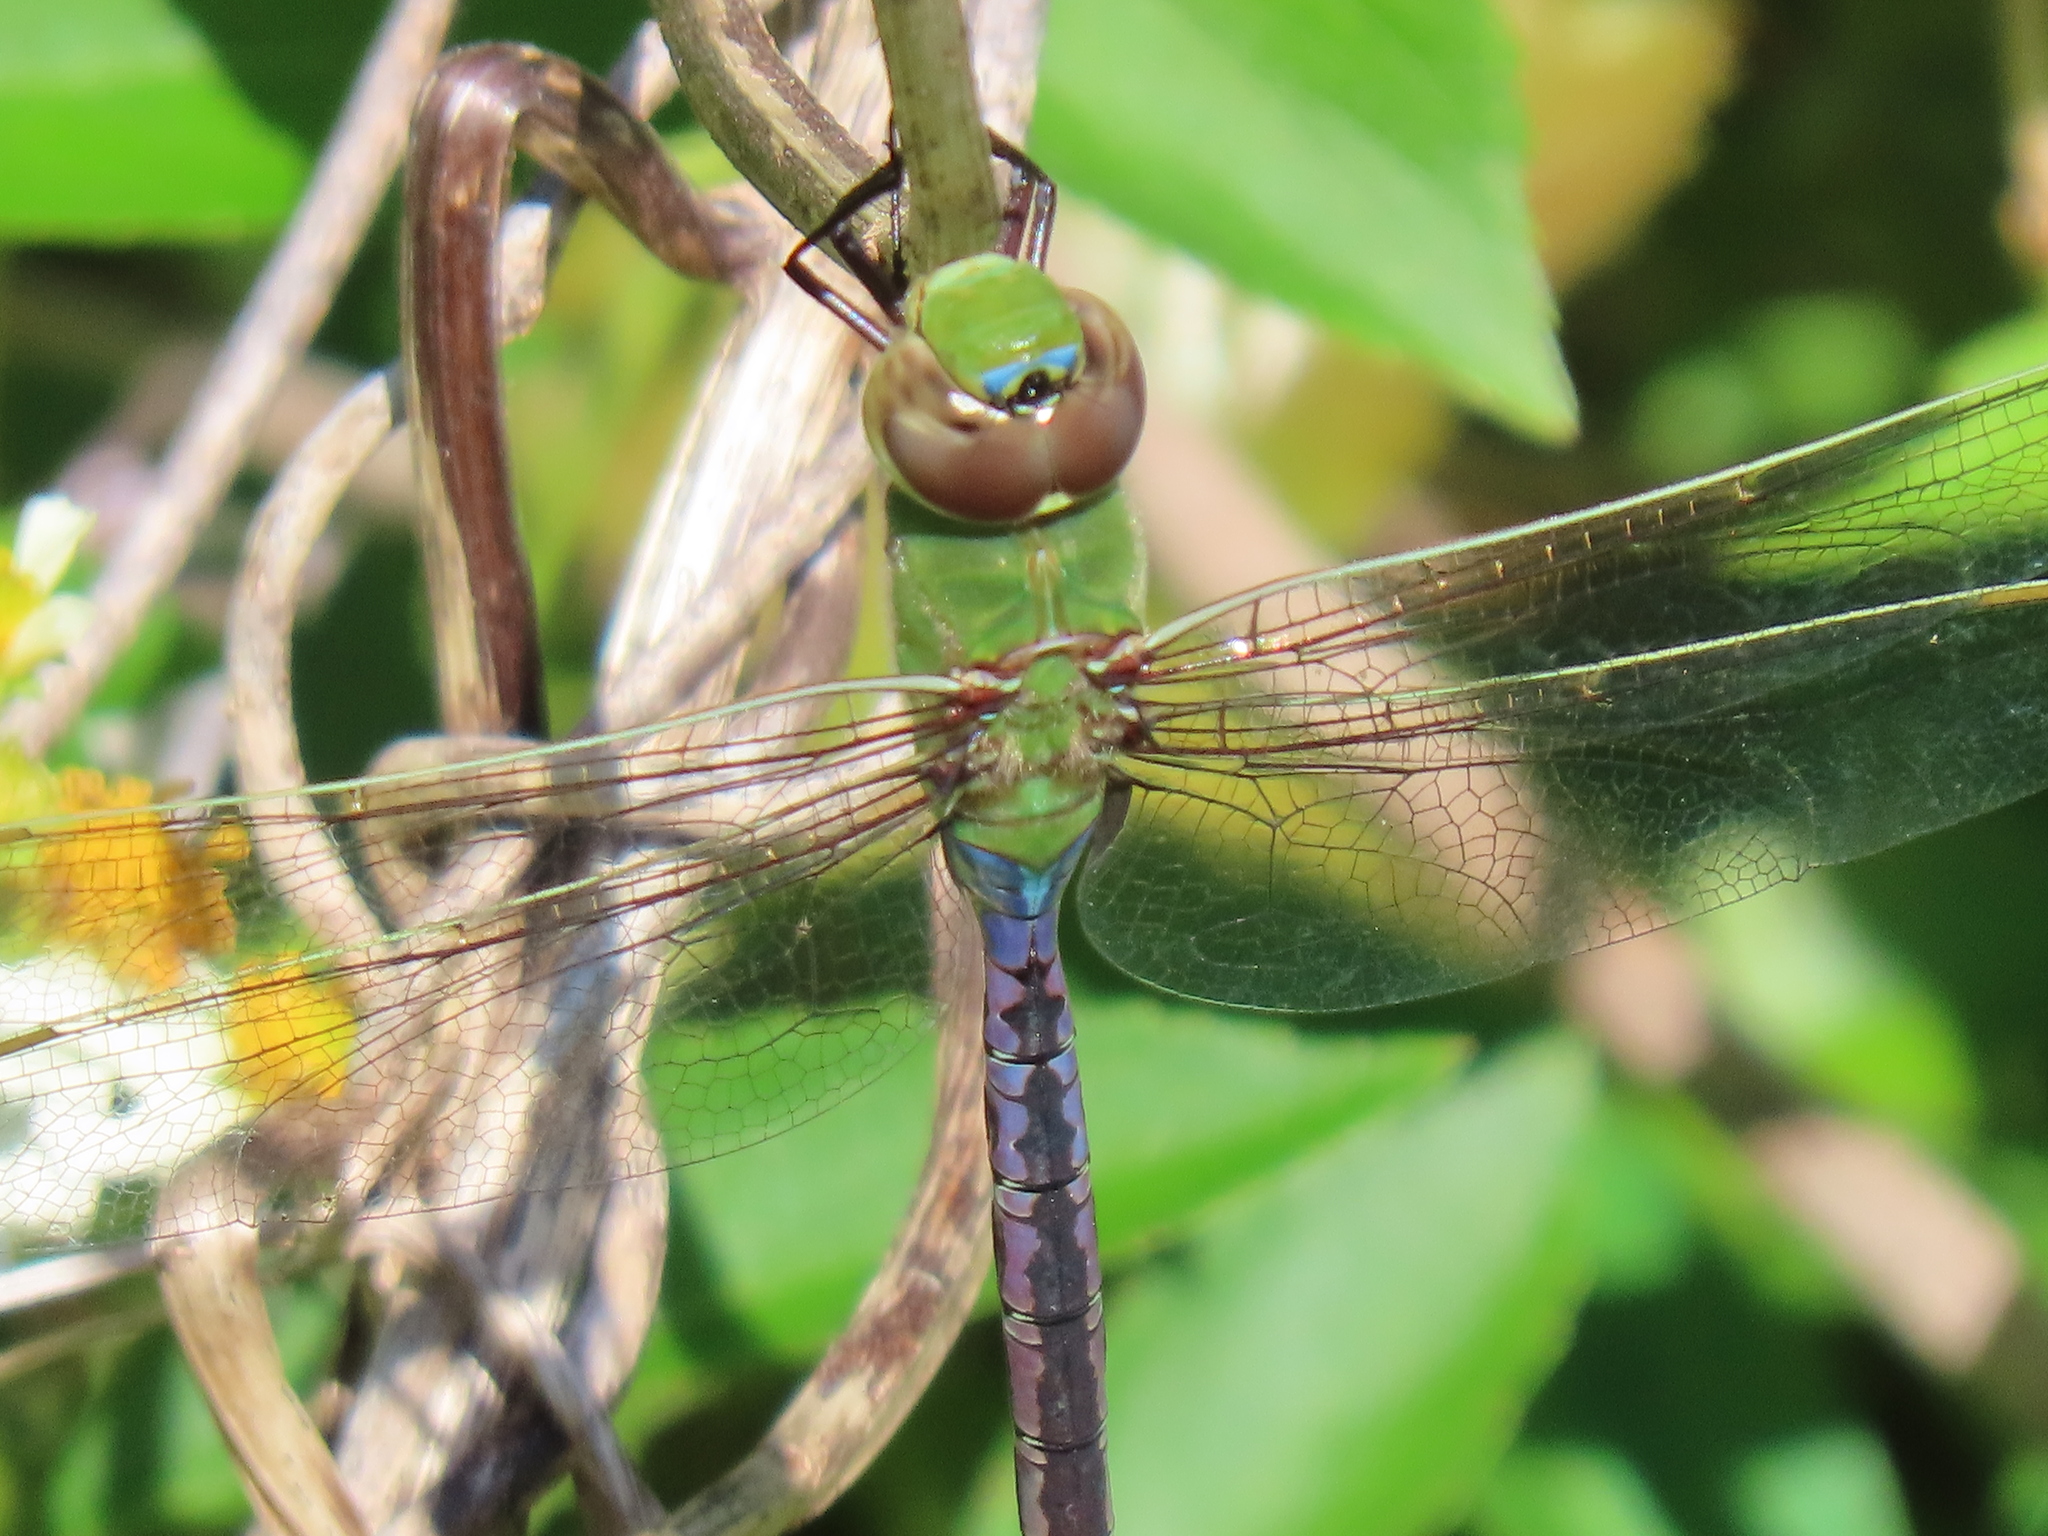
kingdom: Animalia
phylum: Arthropoda
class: Insecta
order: Odonata
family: Aeshnidae
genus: Anax
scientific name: Anax junius
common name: Common green darner
